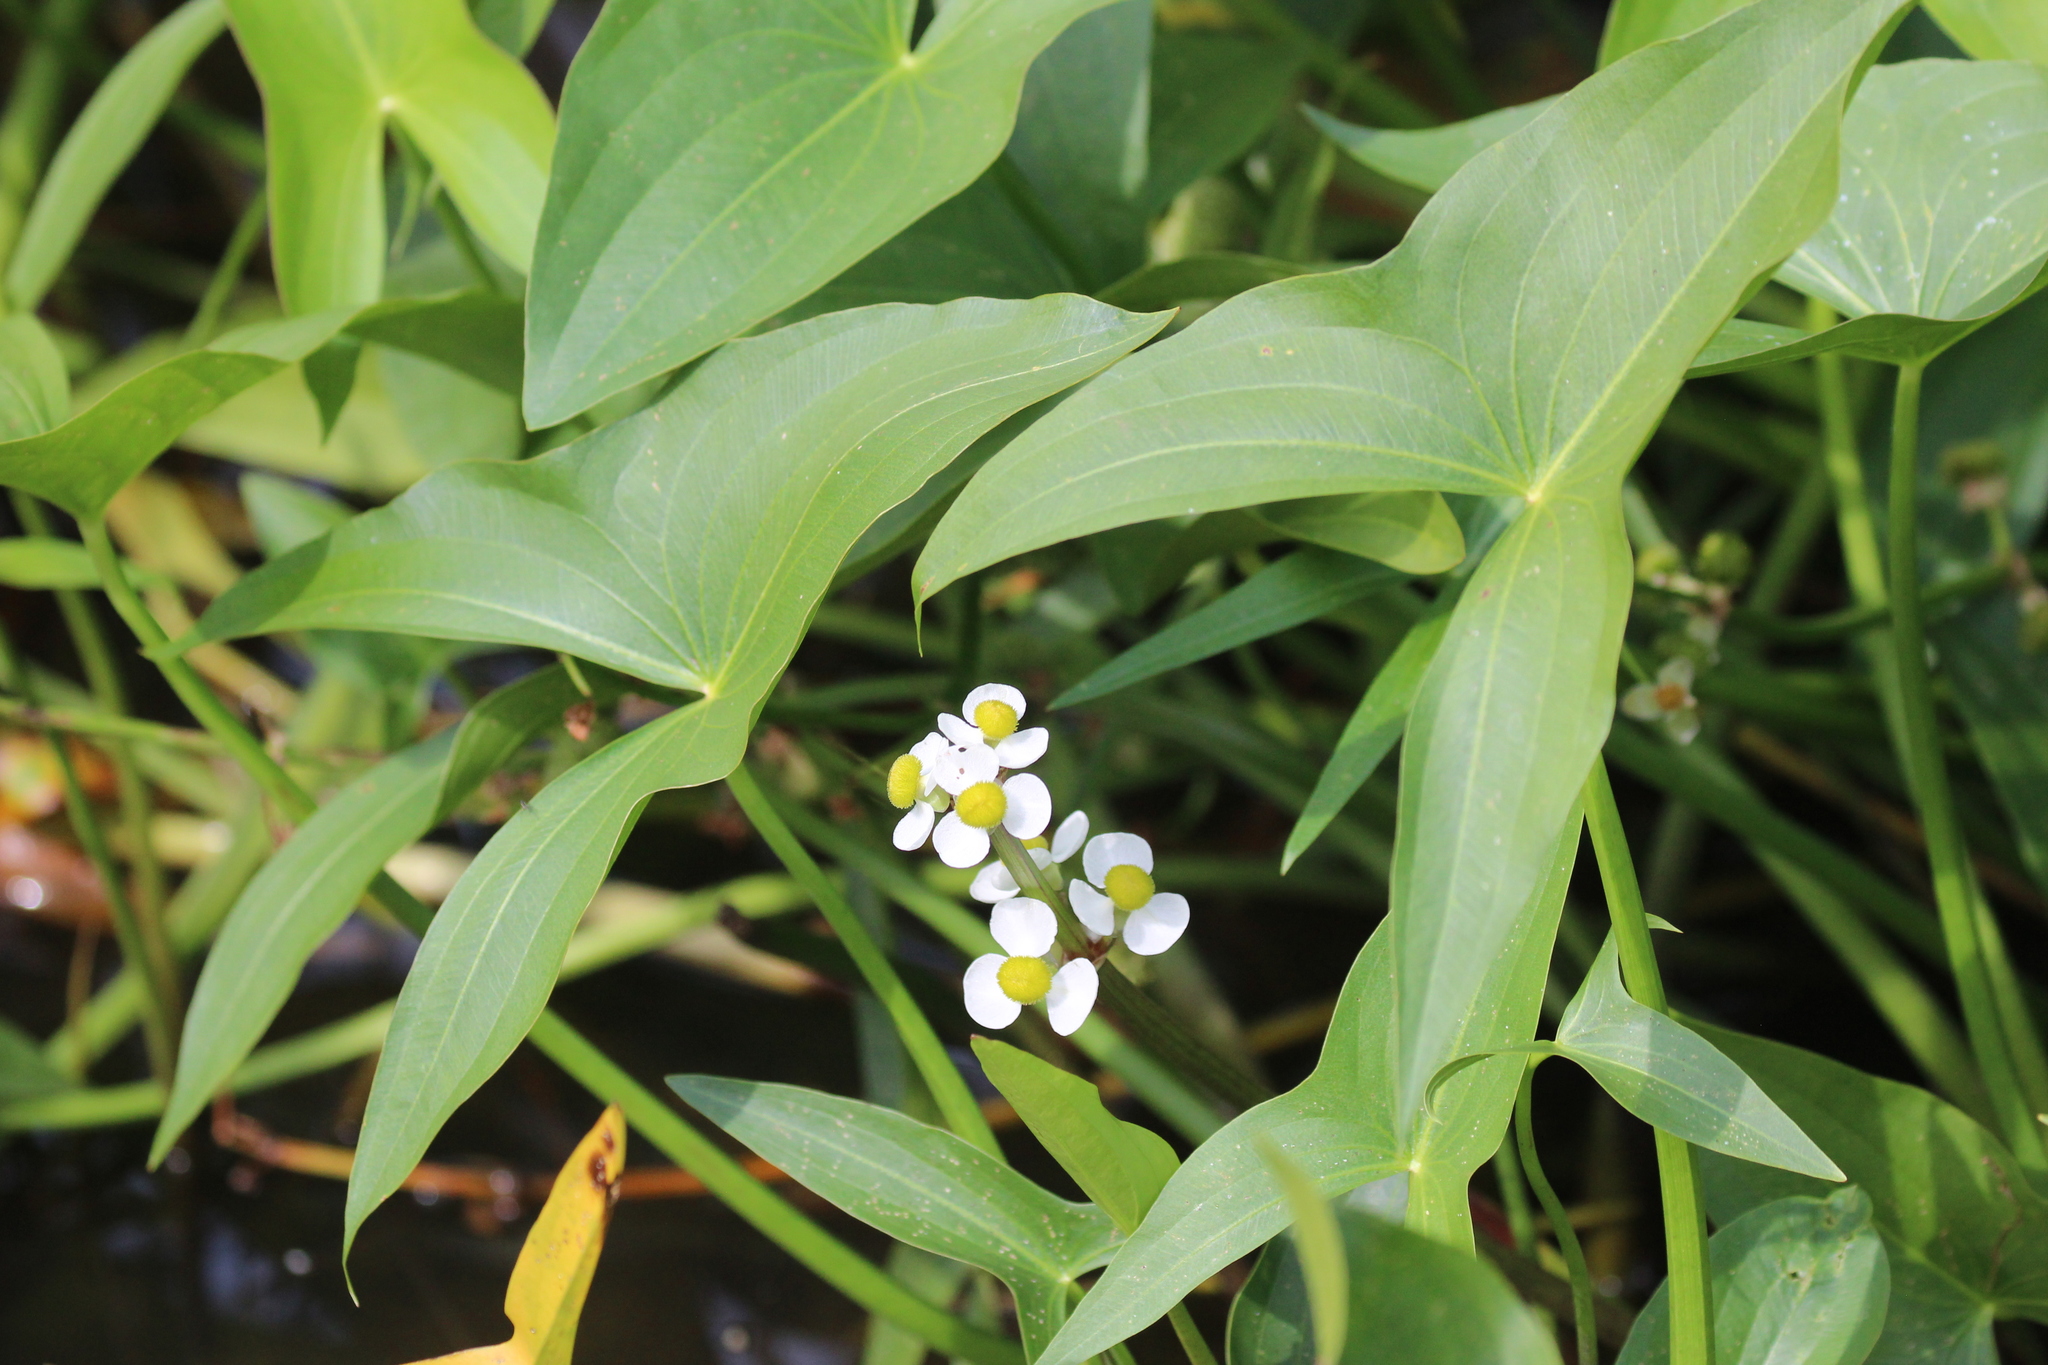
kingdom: Plantae
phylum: Tracheophyta
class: Liliopsida
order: Alismatales
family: Alismataceae
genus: Sagittaria
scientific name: Sagittaria latifolia
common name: Duck-potato
